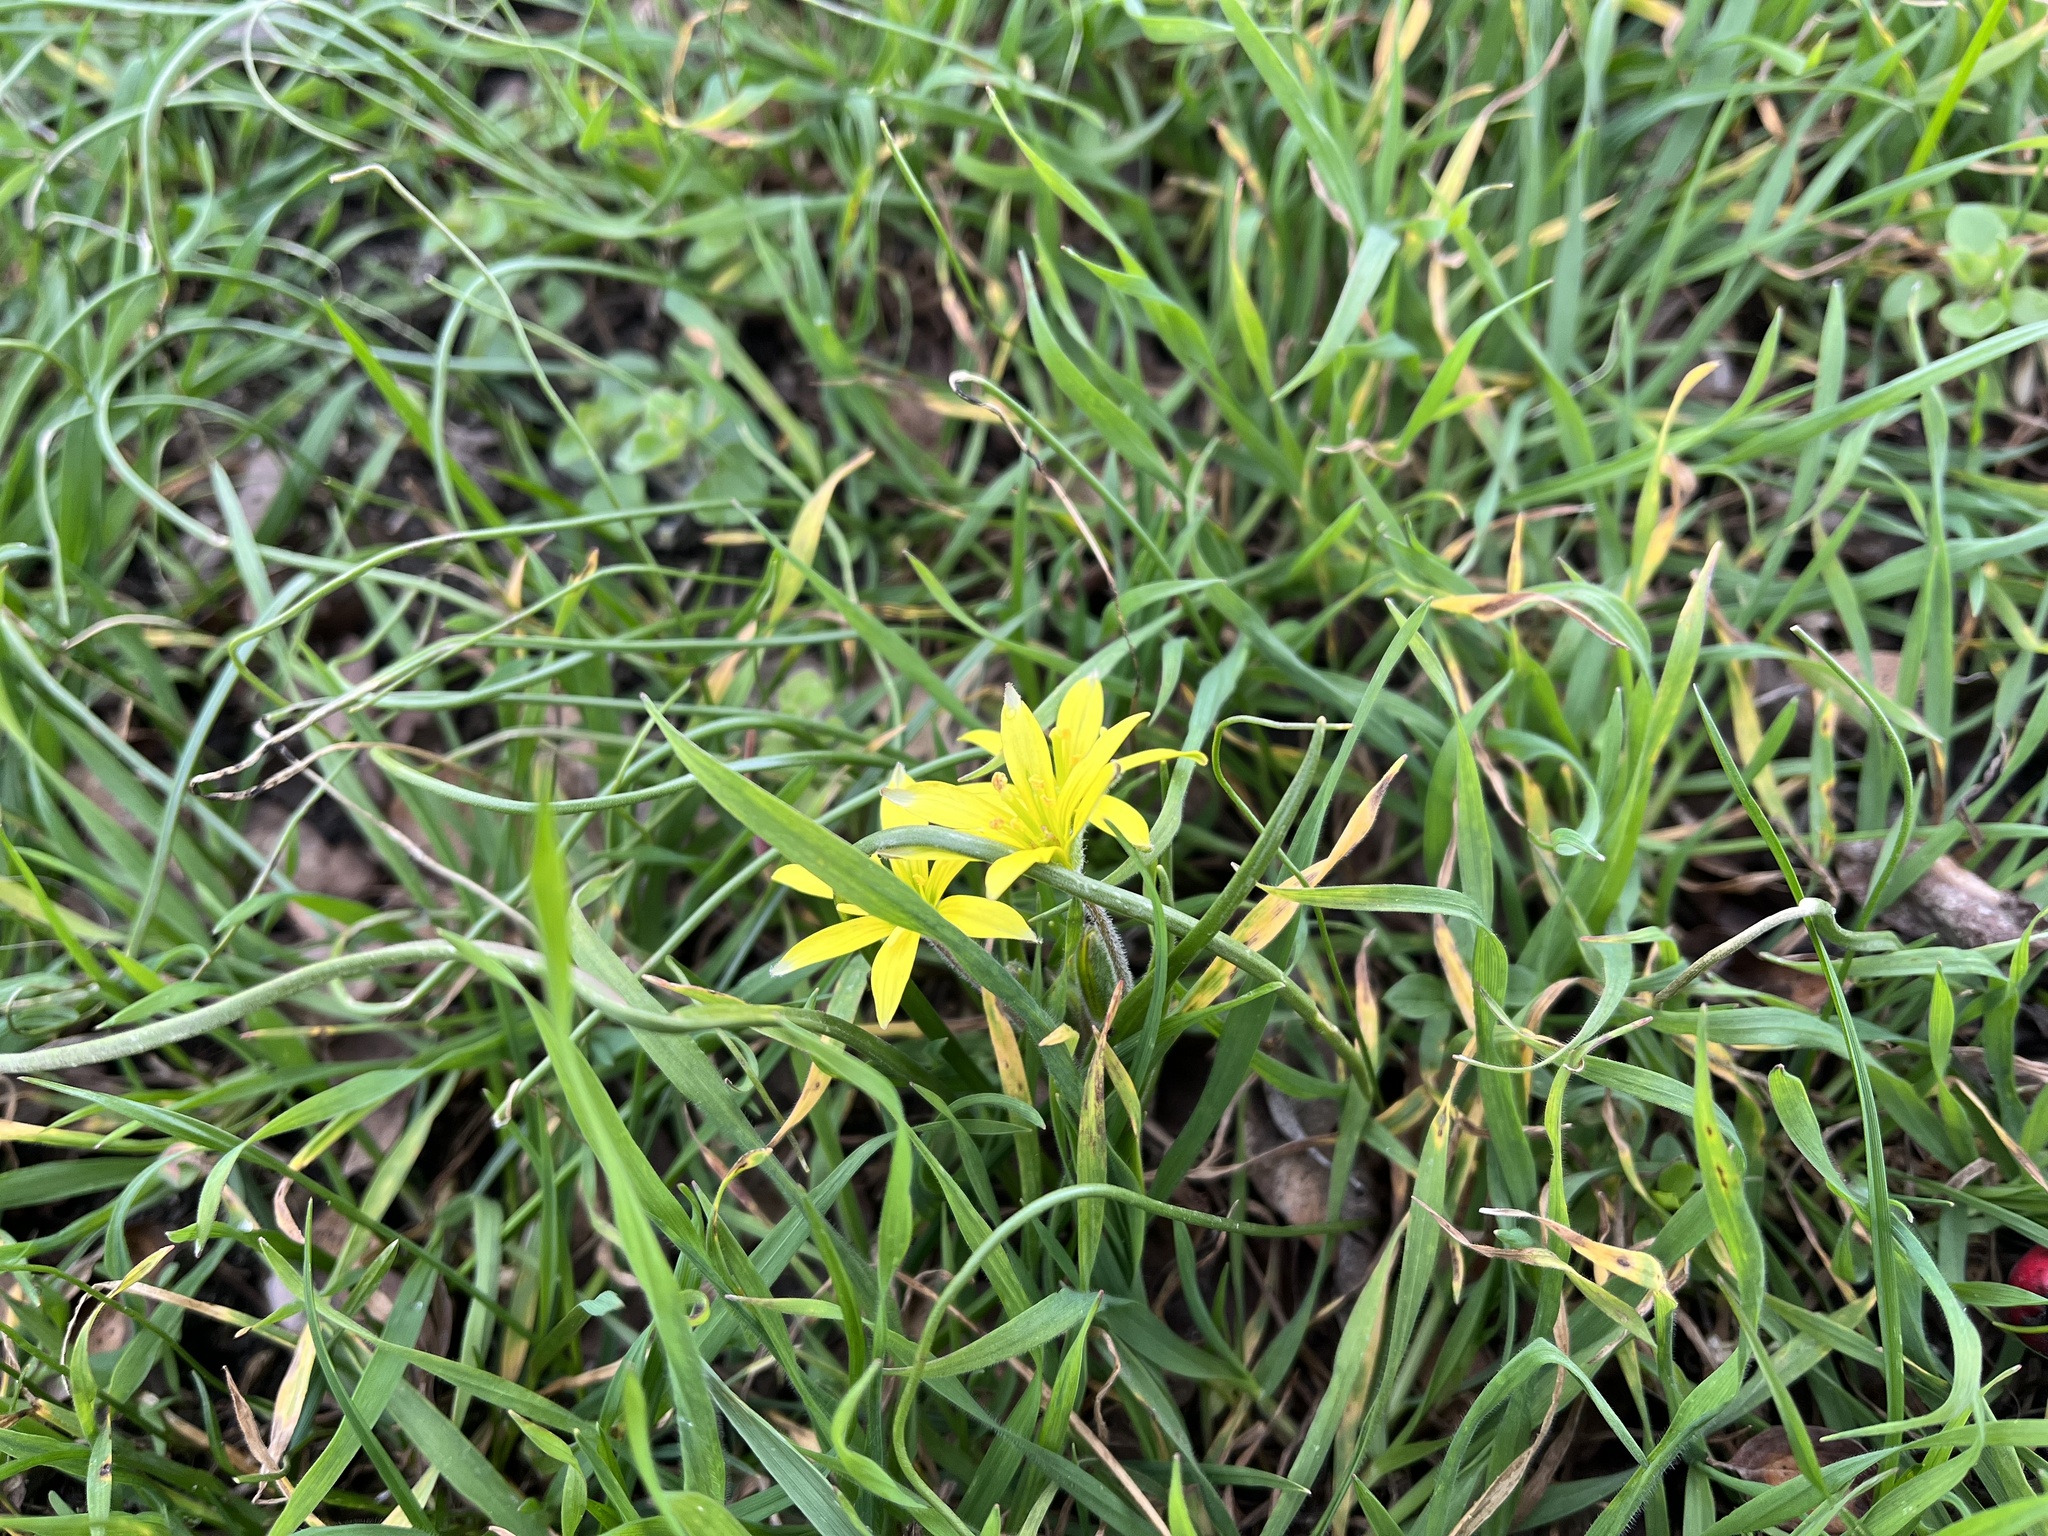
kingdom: Plantae
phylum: Tracheophyta
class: Liliopsida
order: Liliales
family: Liliaceae
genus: Gagea
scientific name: Gagea villosa
